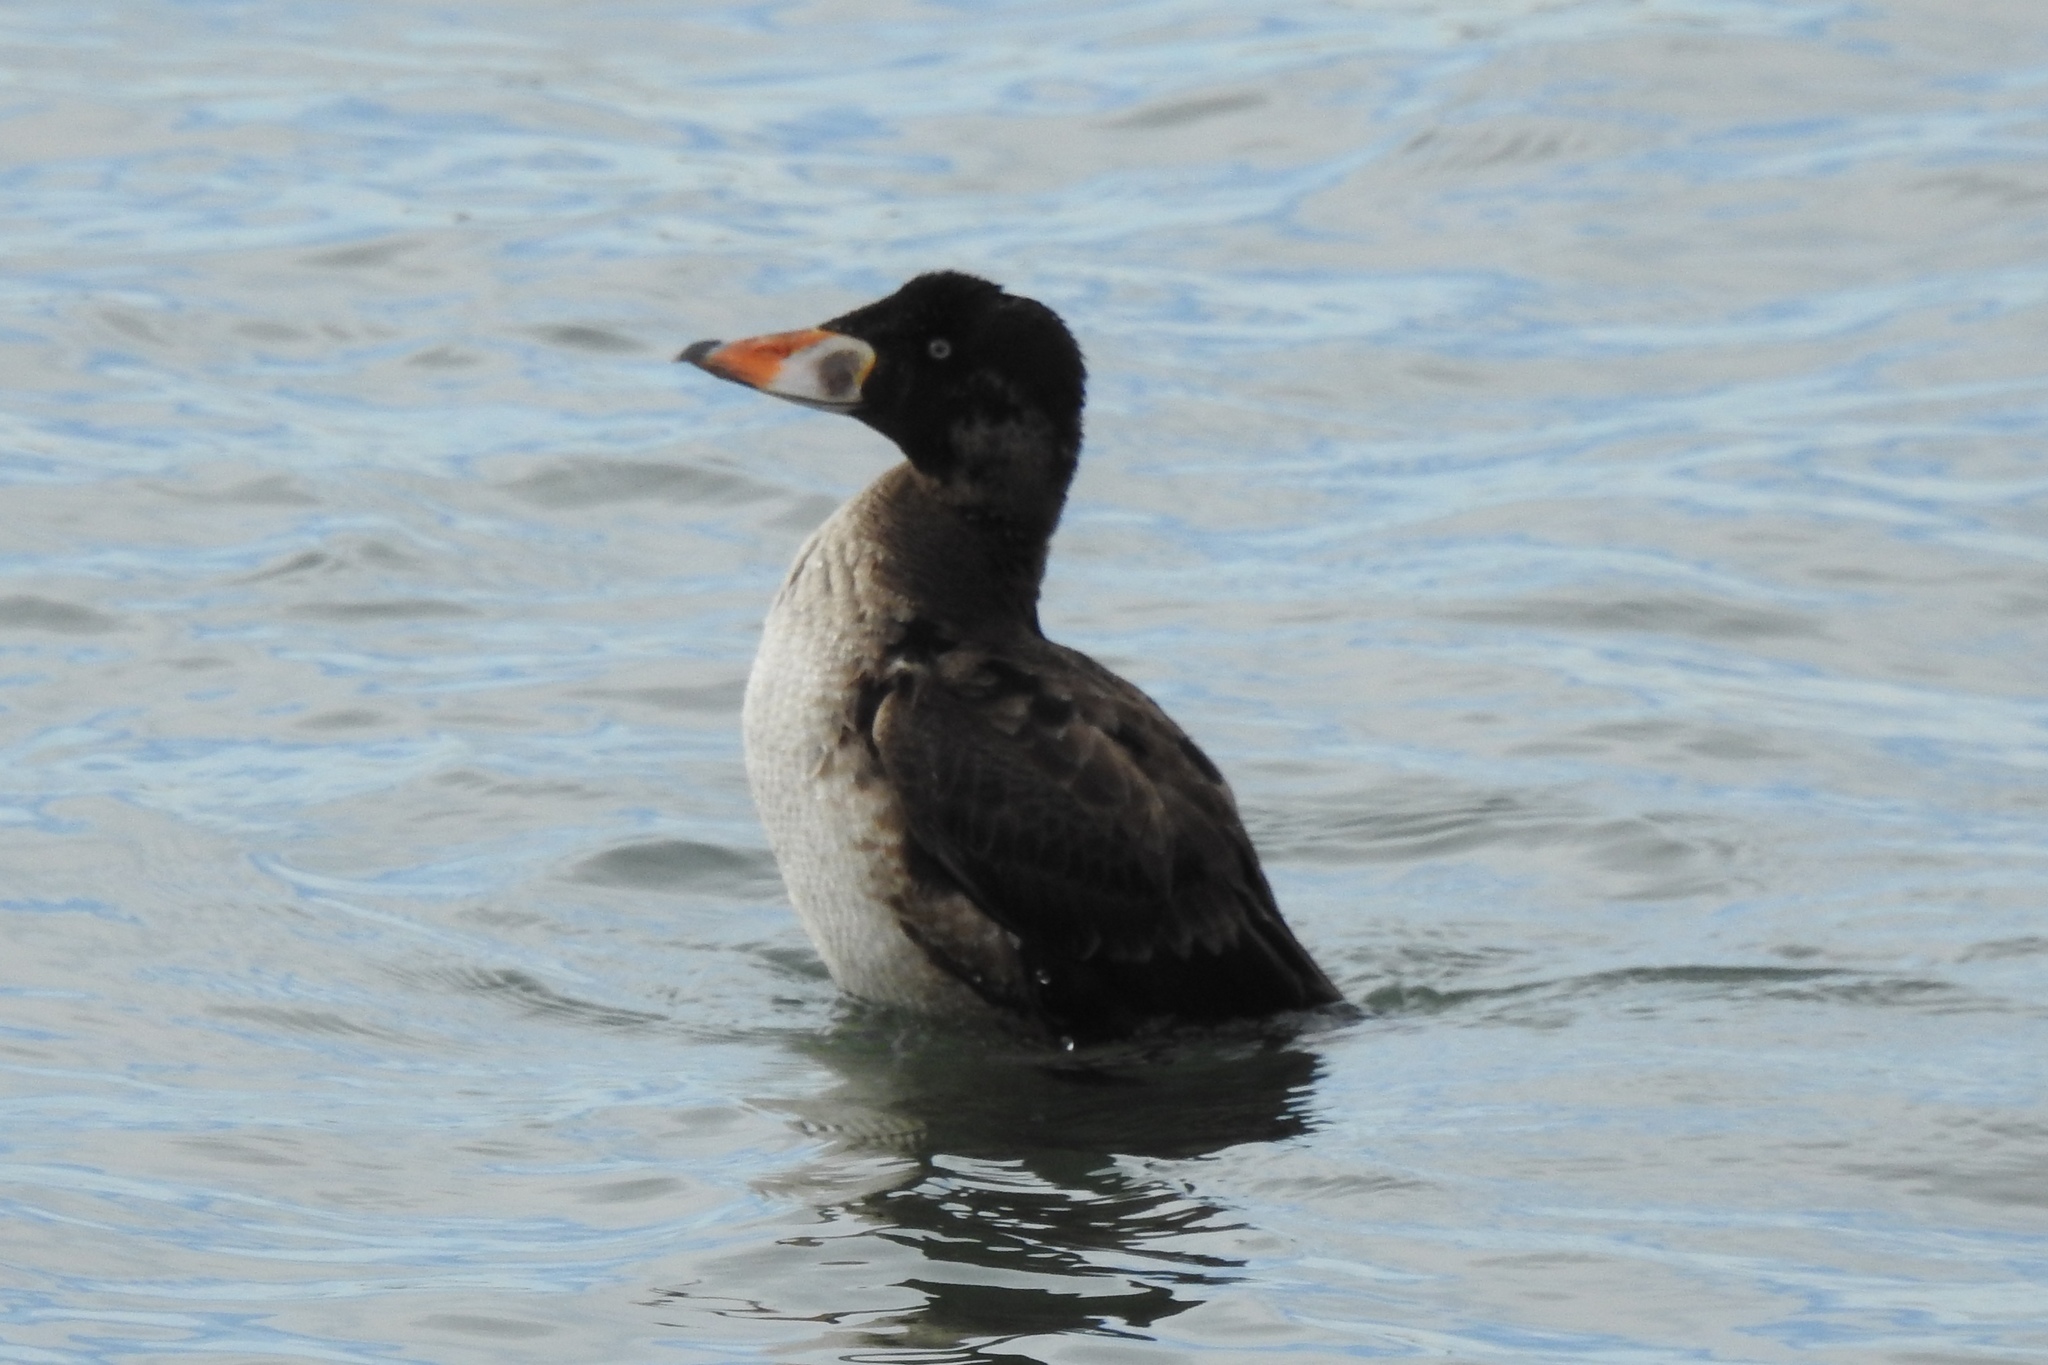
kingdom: Animalia
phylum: Chordata
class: Aves
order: Anseriformes
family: Anatidae
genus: Melanitta
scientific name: Melanitta perspicillata
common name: Surf scoter
